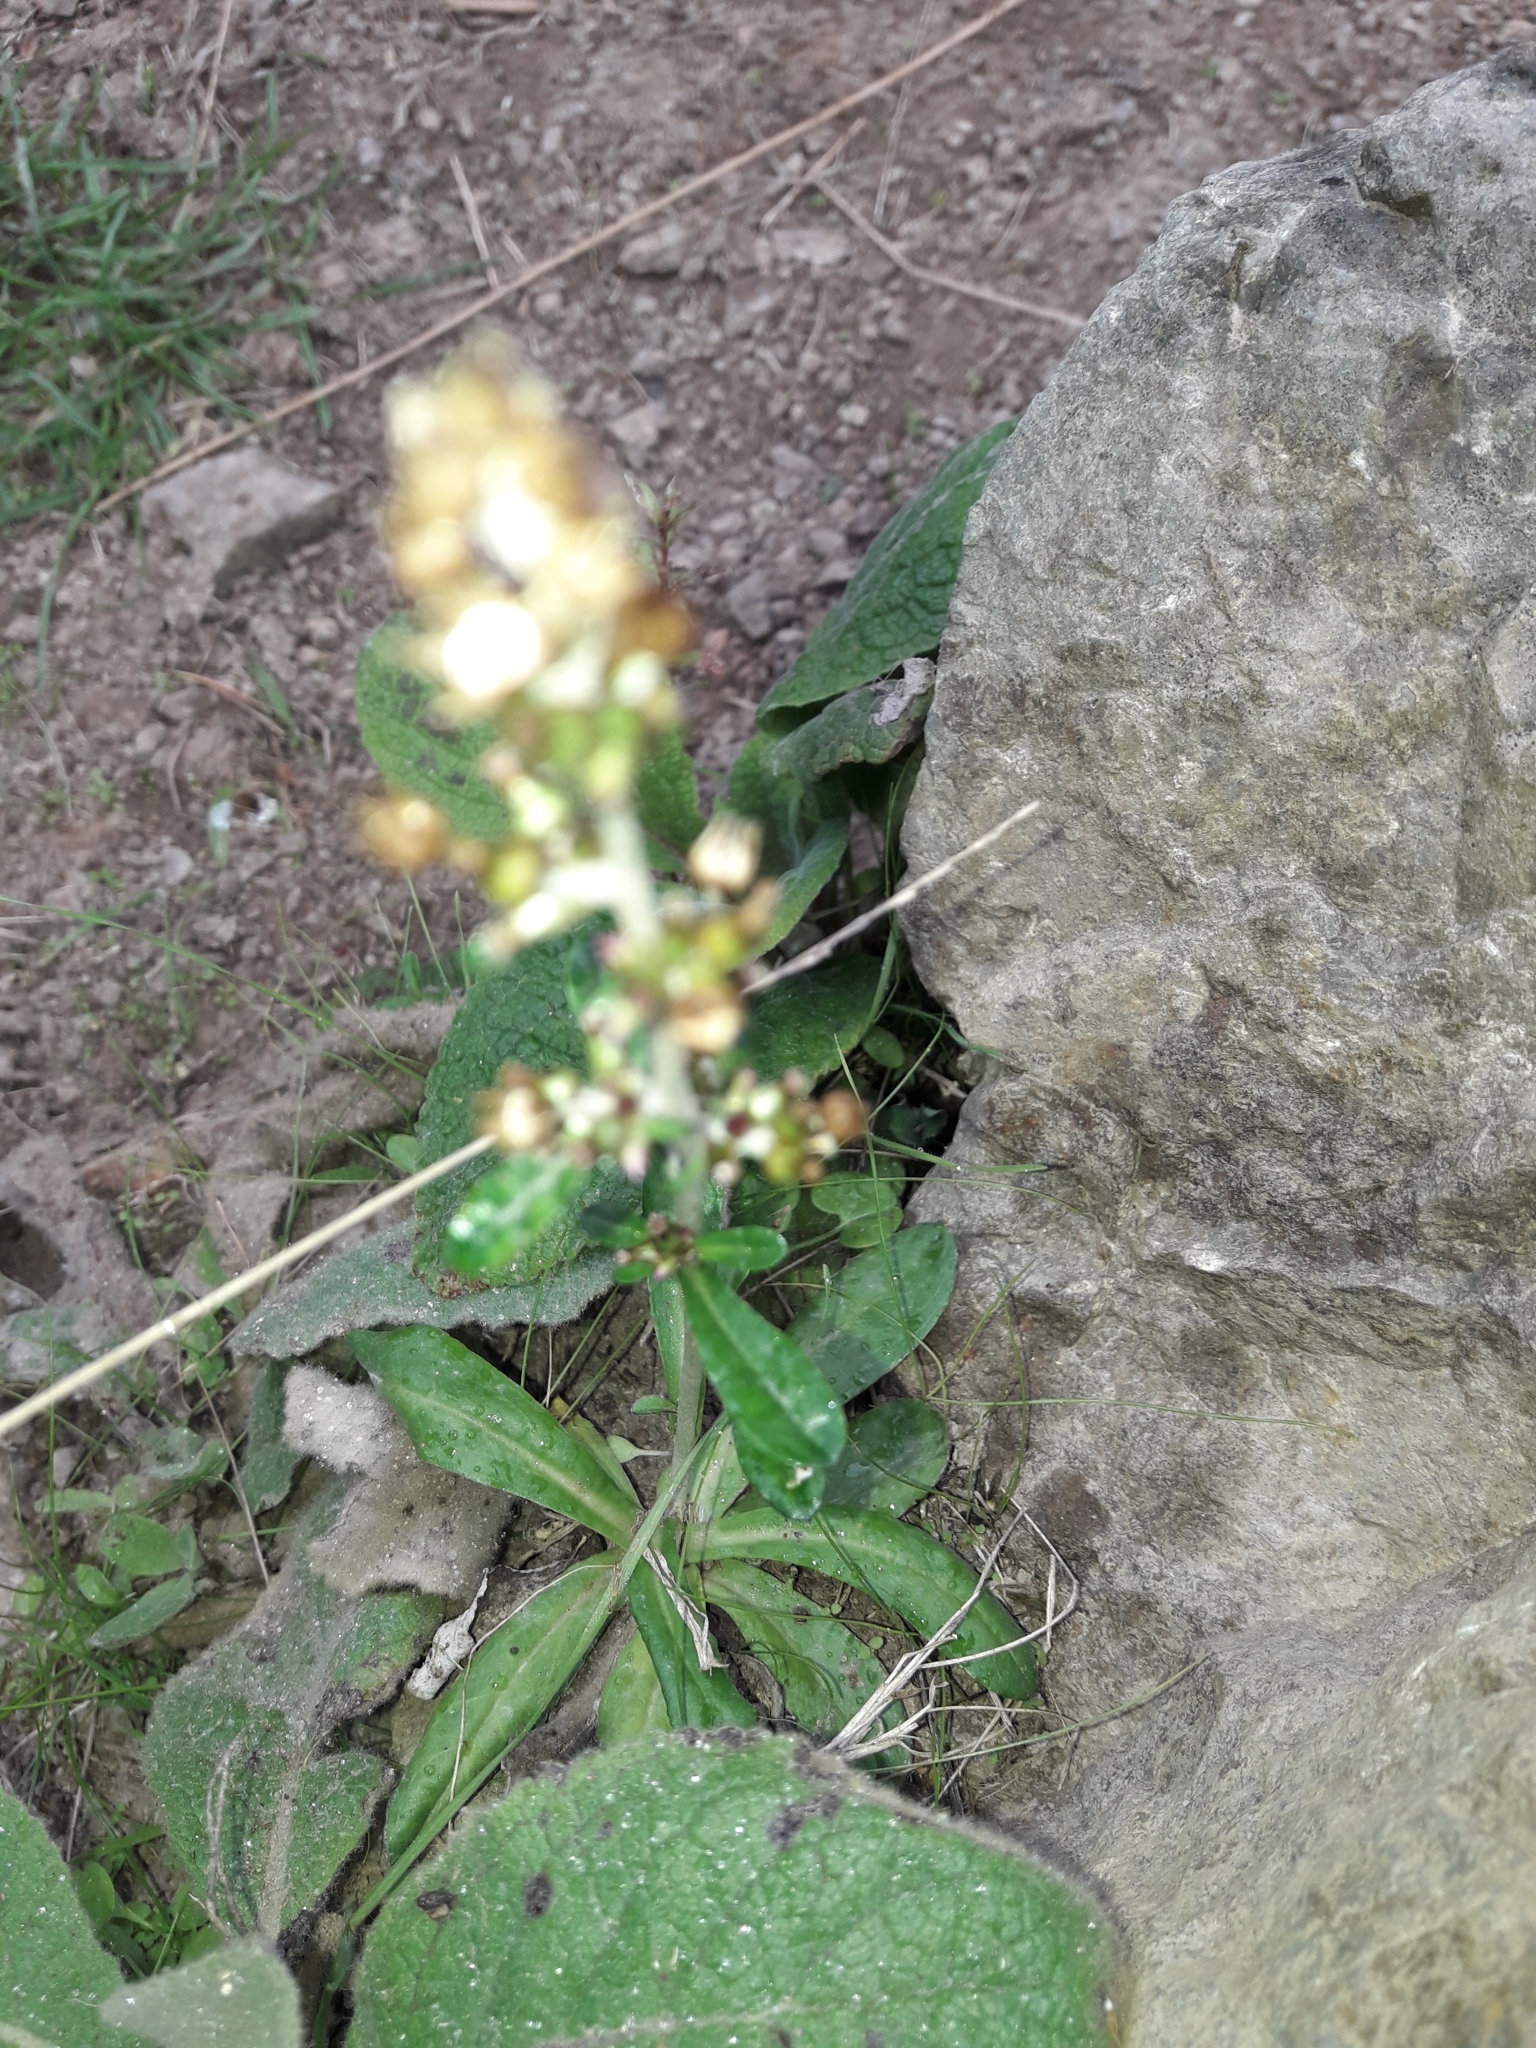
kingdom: Plantae
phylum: Tracheophyta
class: Magnoliopsida
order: Asterales
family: Asteraceae
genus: Gamochaeta
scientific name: Gamochaeta americana
